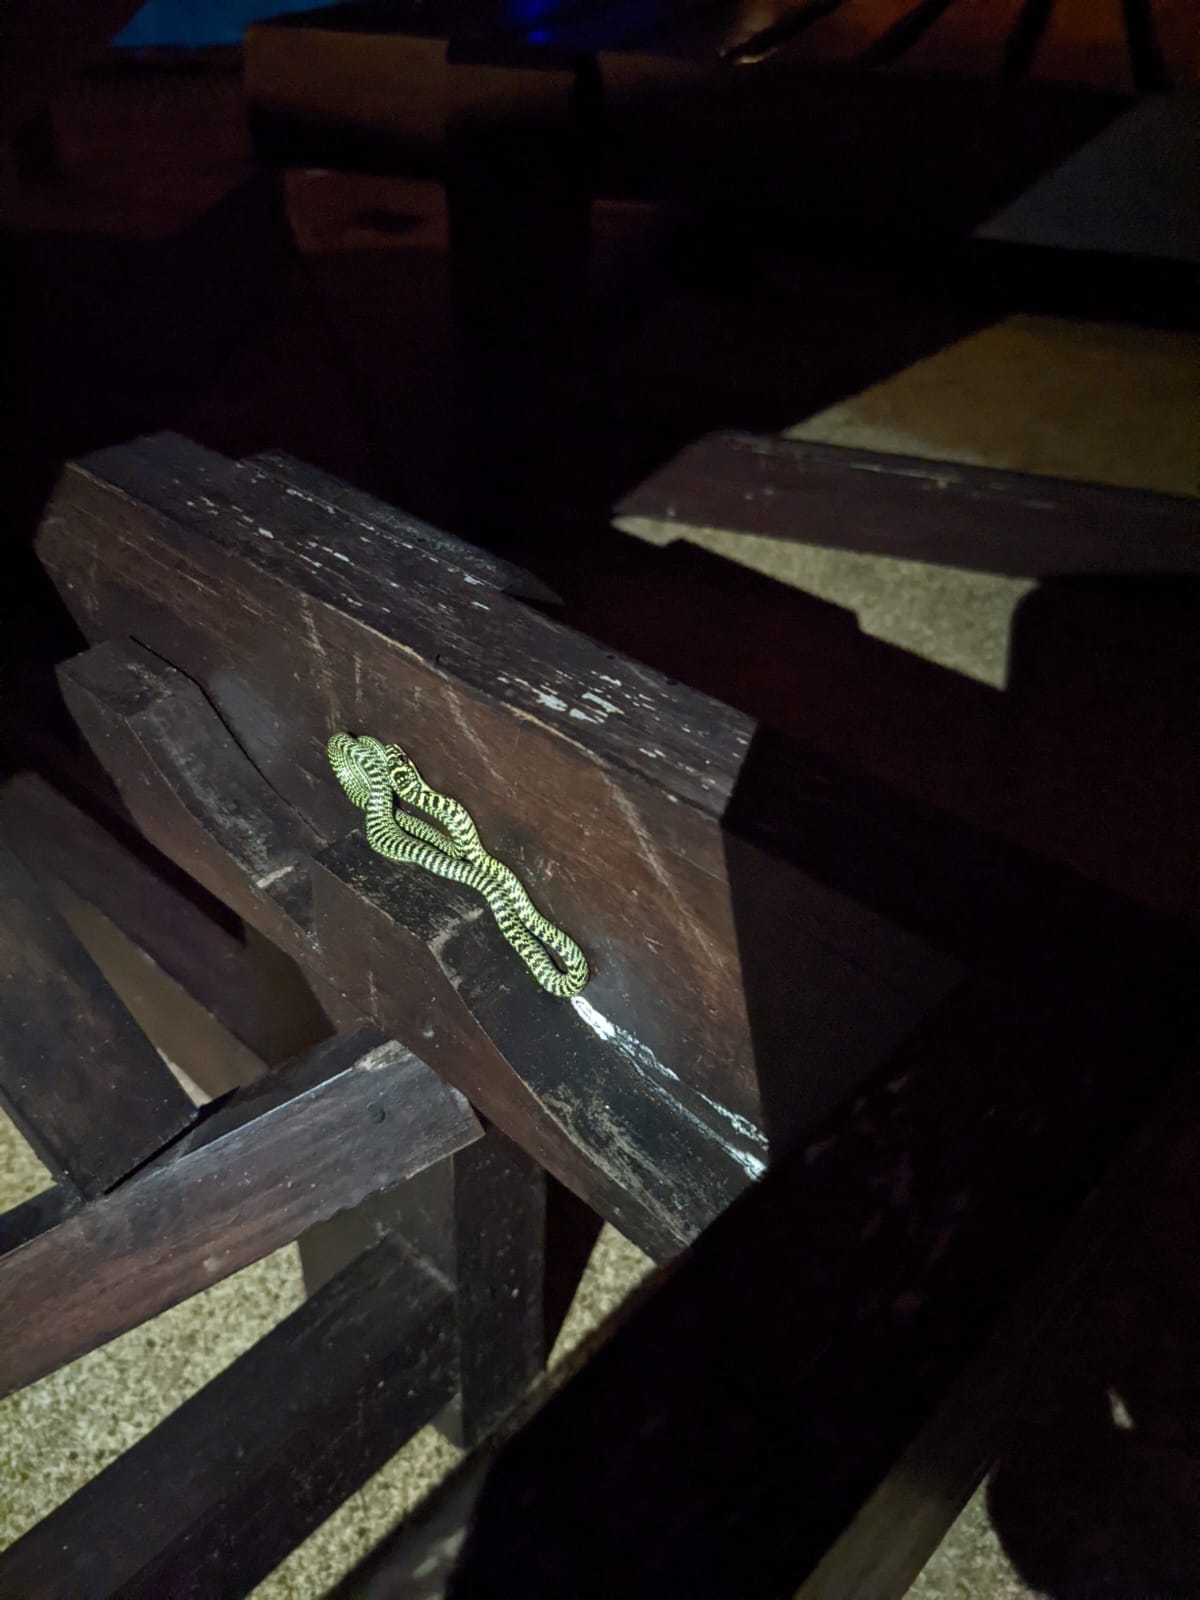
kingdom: Animalia
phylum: Chordata
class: Squamata
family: Colubridae
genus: Chrysopelea
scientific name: Chrysopelea ornata
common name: Golden flying snake
